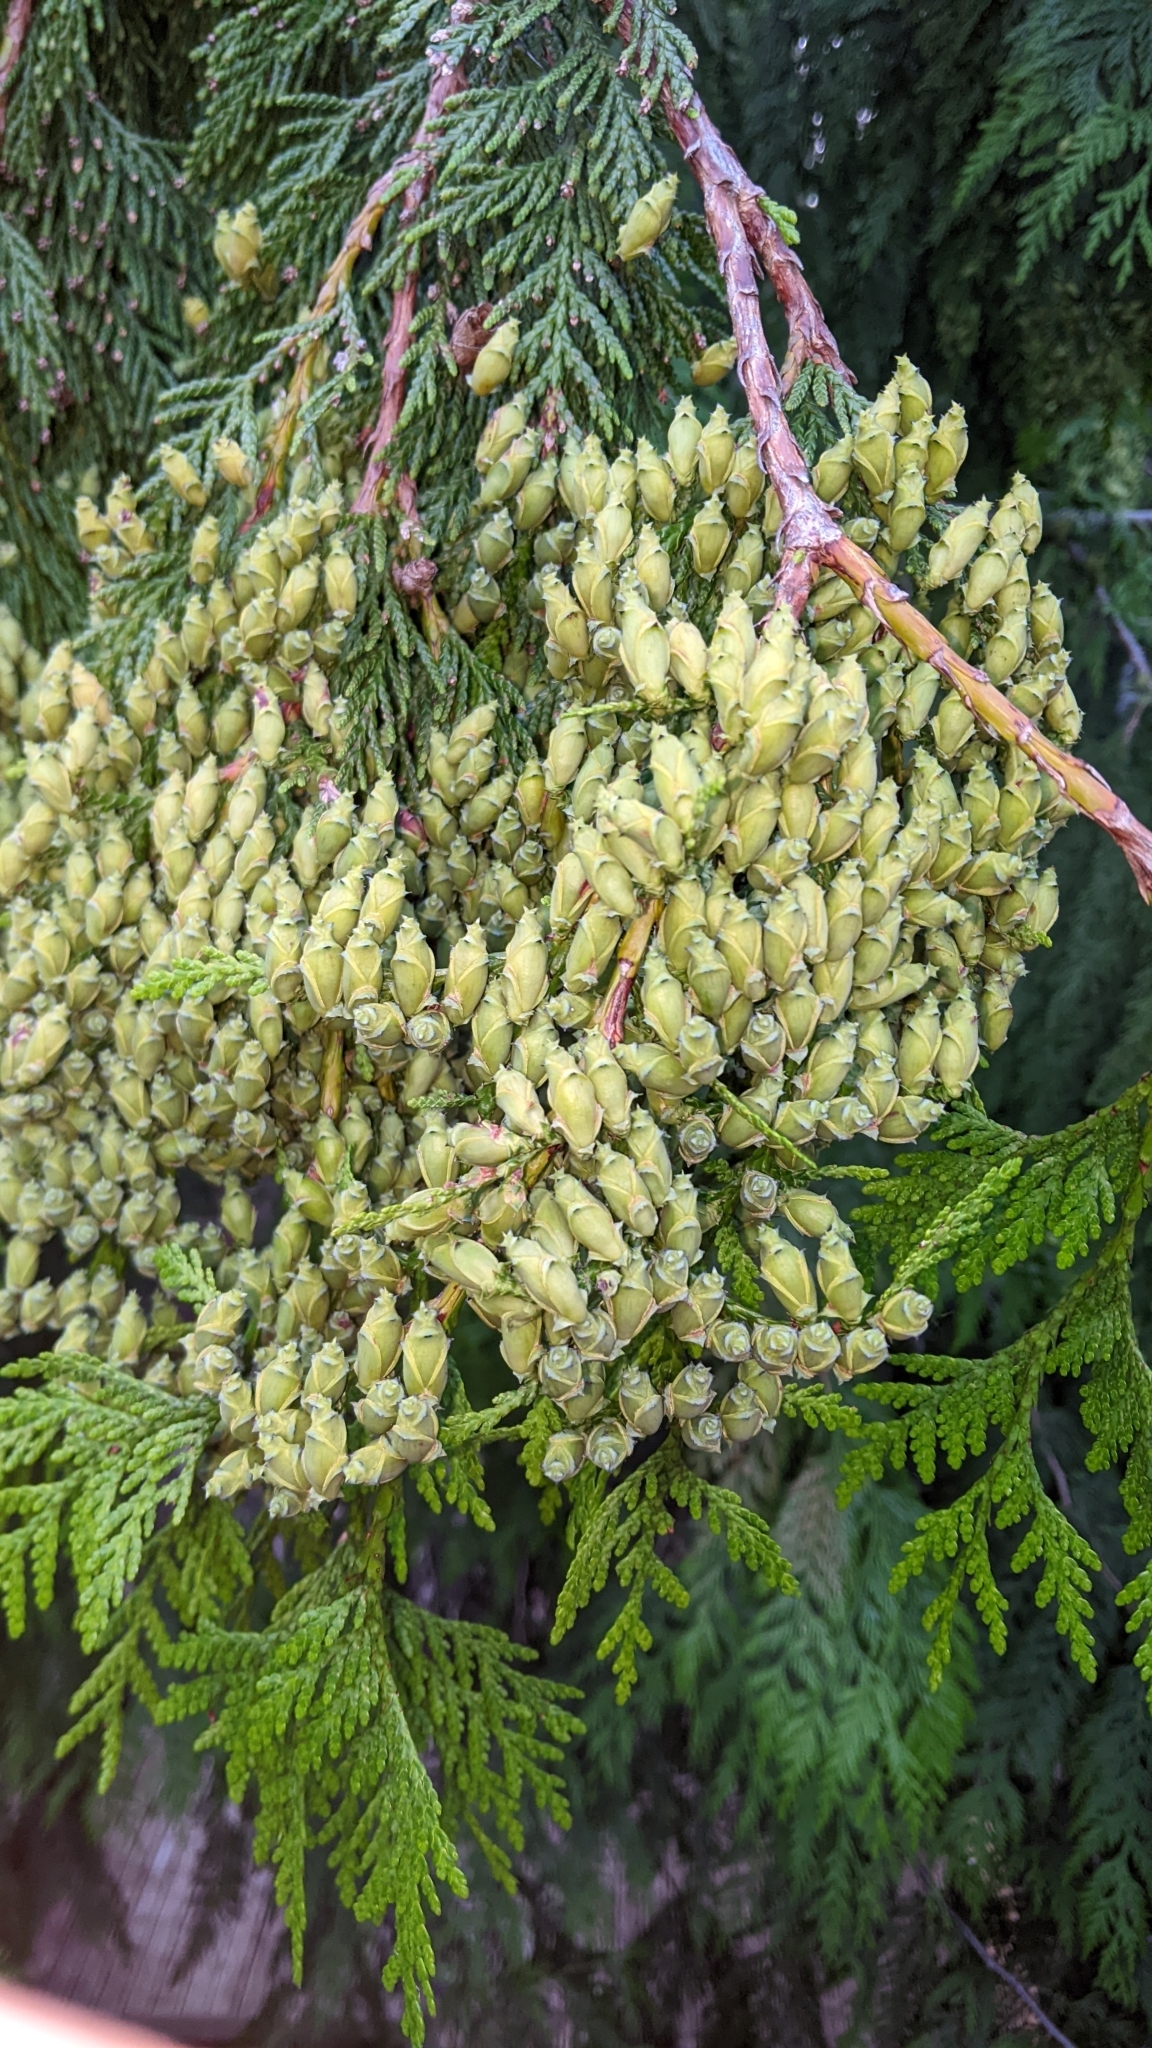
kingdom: Plantae
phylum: Tracheophyta
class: Pinopsida
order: Pinales
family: Cupressaceae
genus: Thuja
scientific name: Thuja plicata
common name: Western red-cedar
